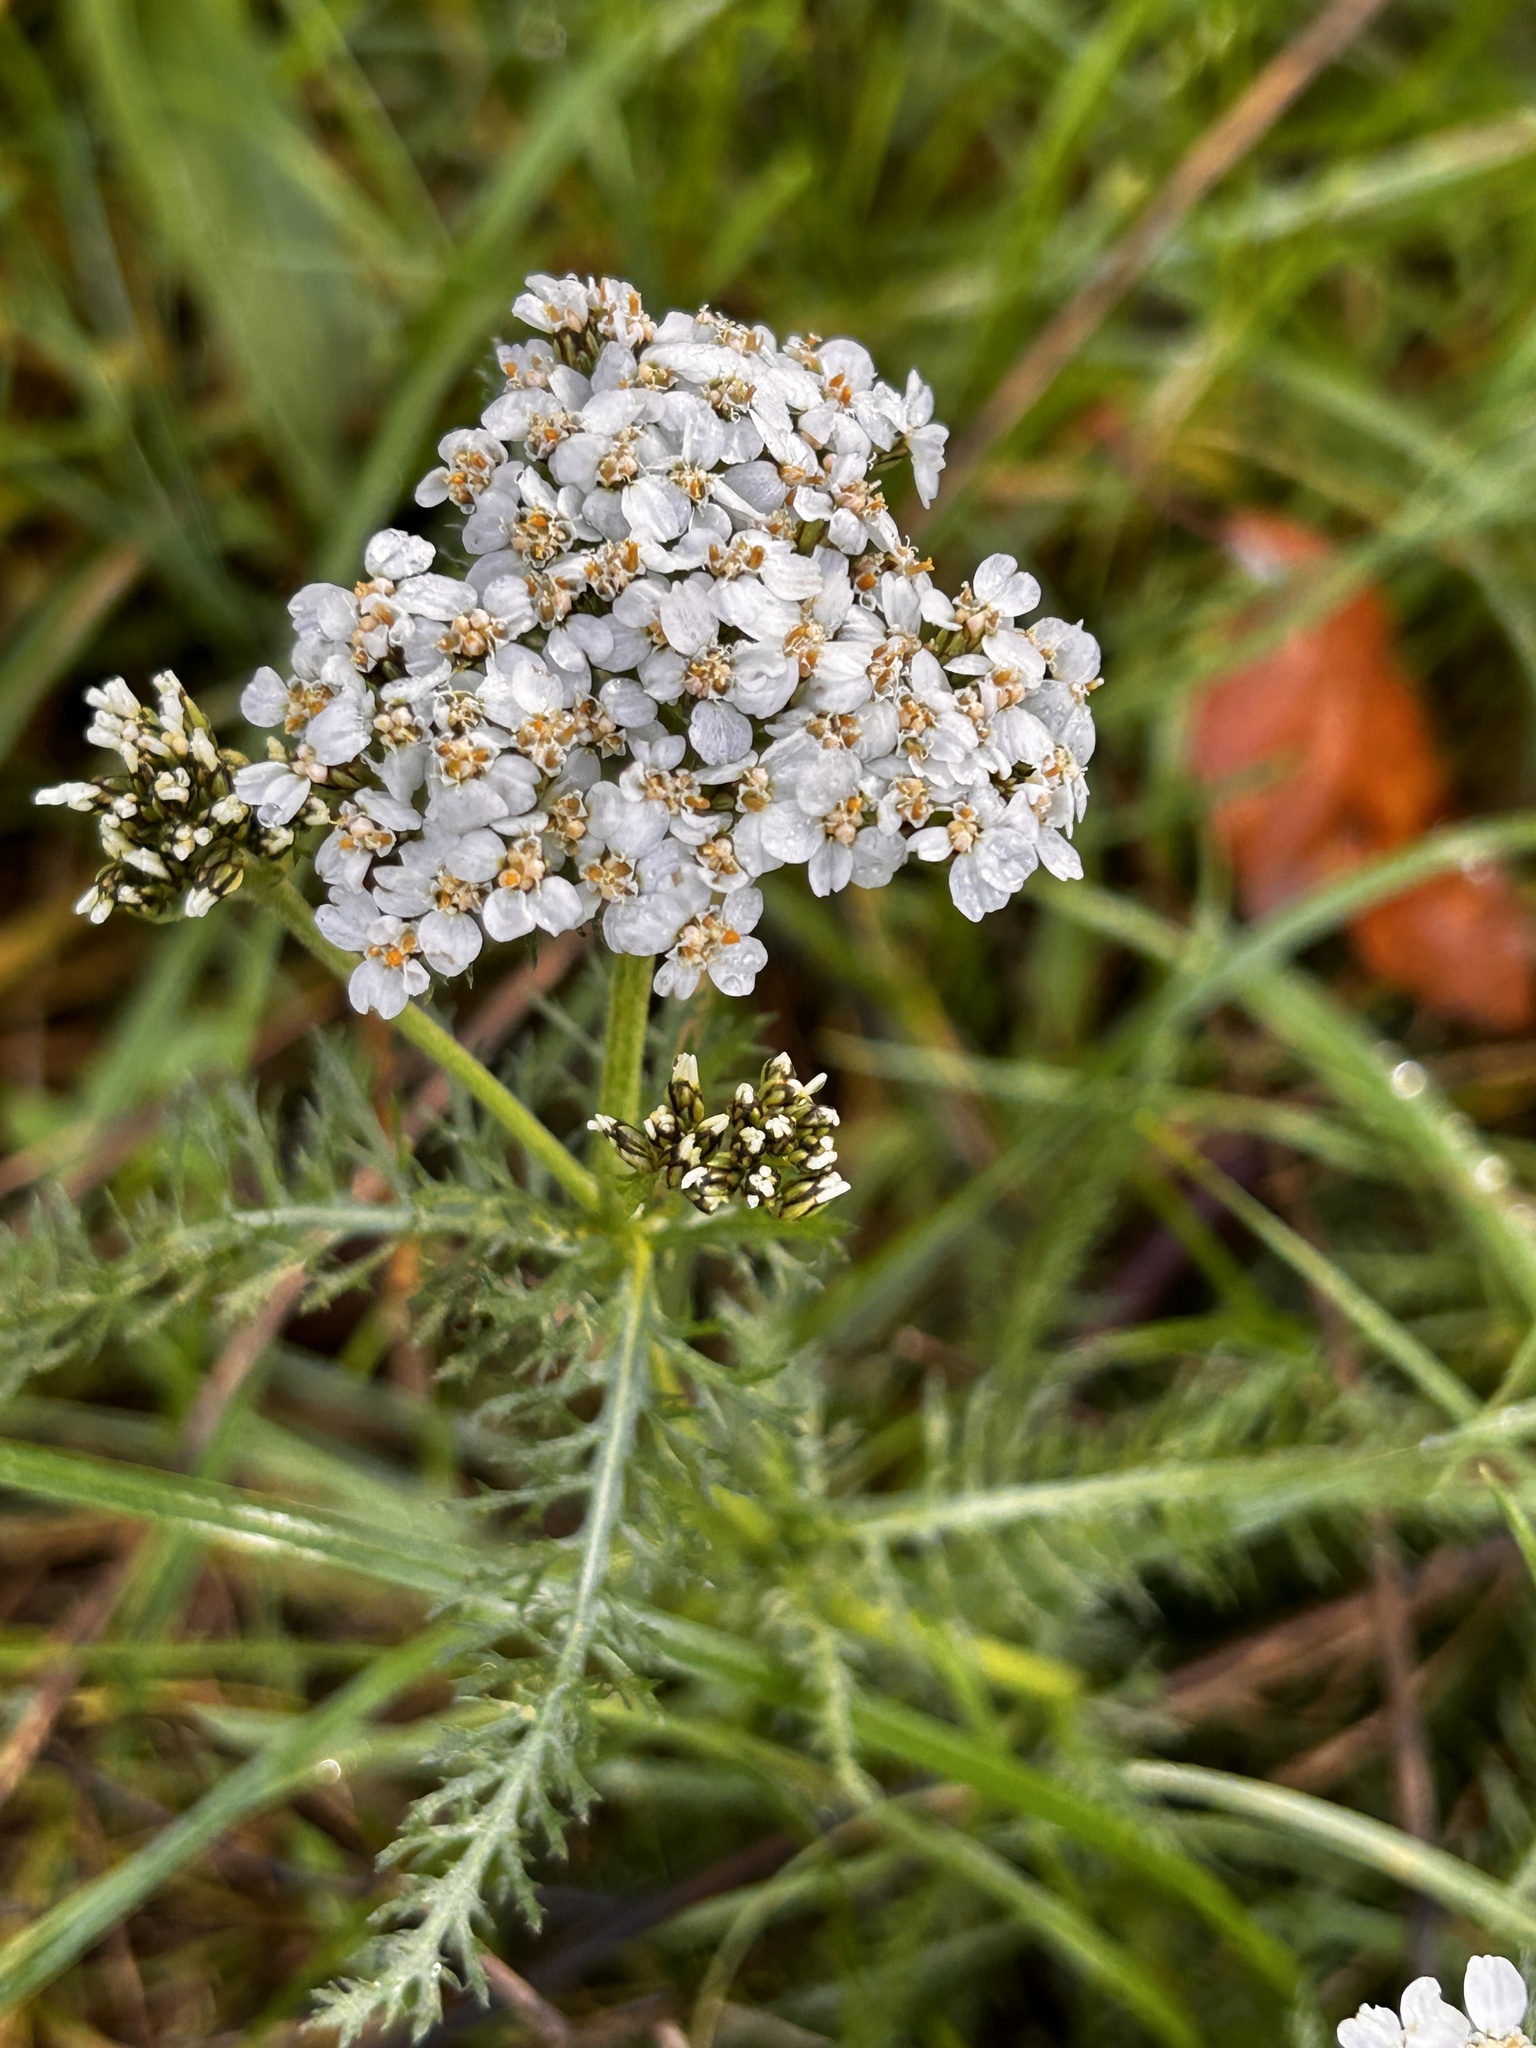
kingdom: Plantae
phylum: Tracheophyta
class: Magnoliopsida
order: Asterales
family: Asteraceae
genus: Achillea
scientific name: Achillea millefolium
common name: Yarrow
